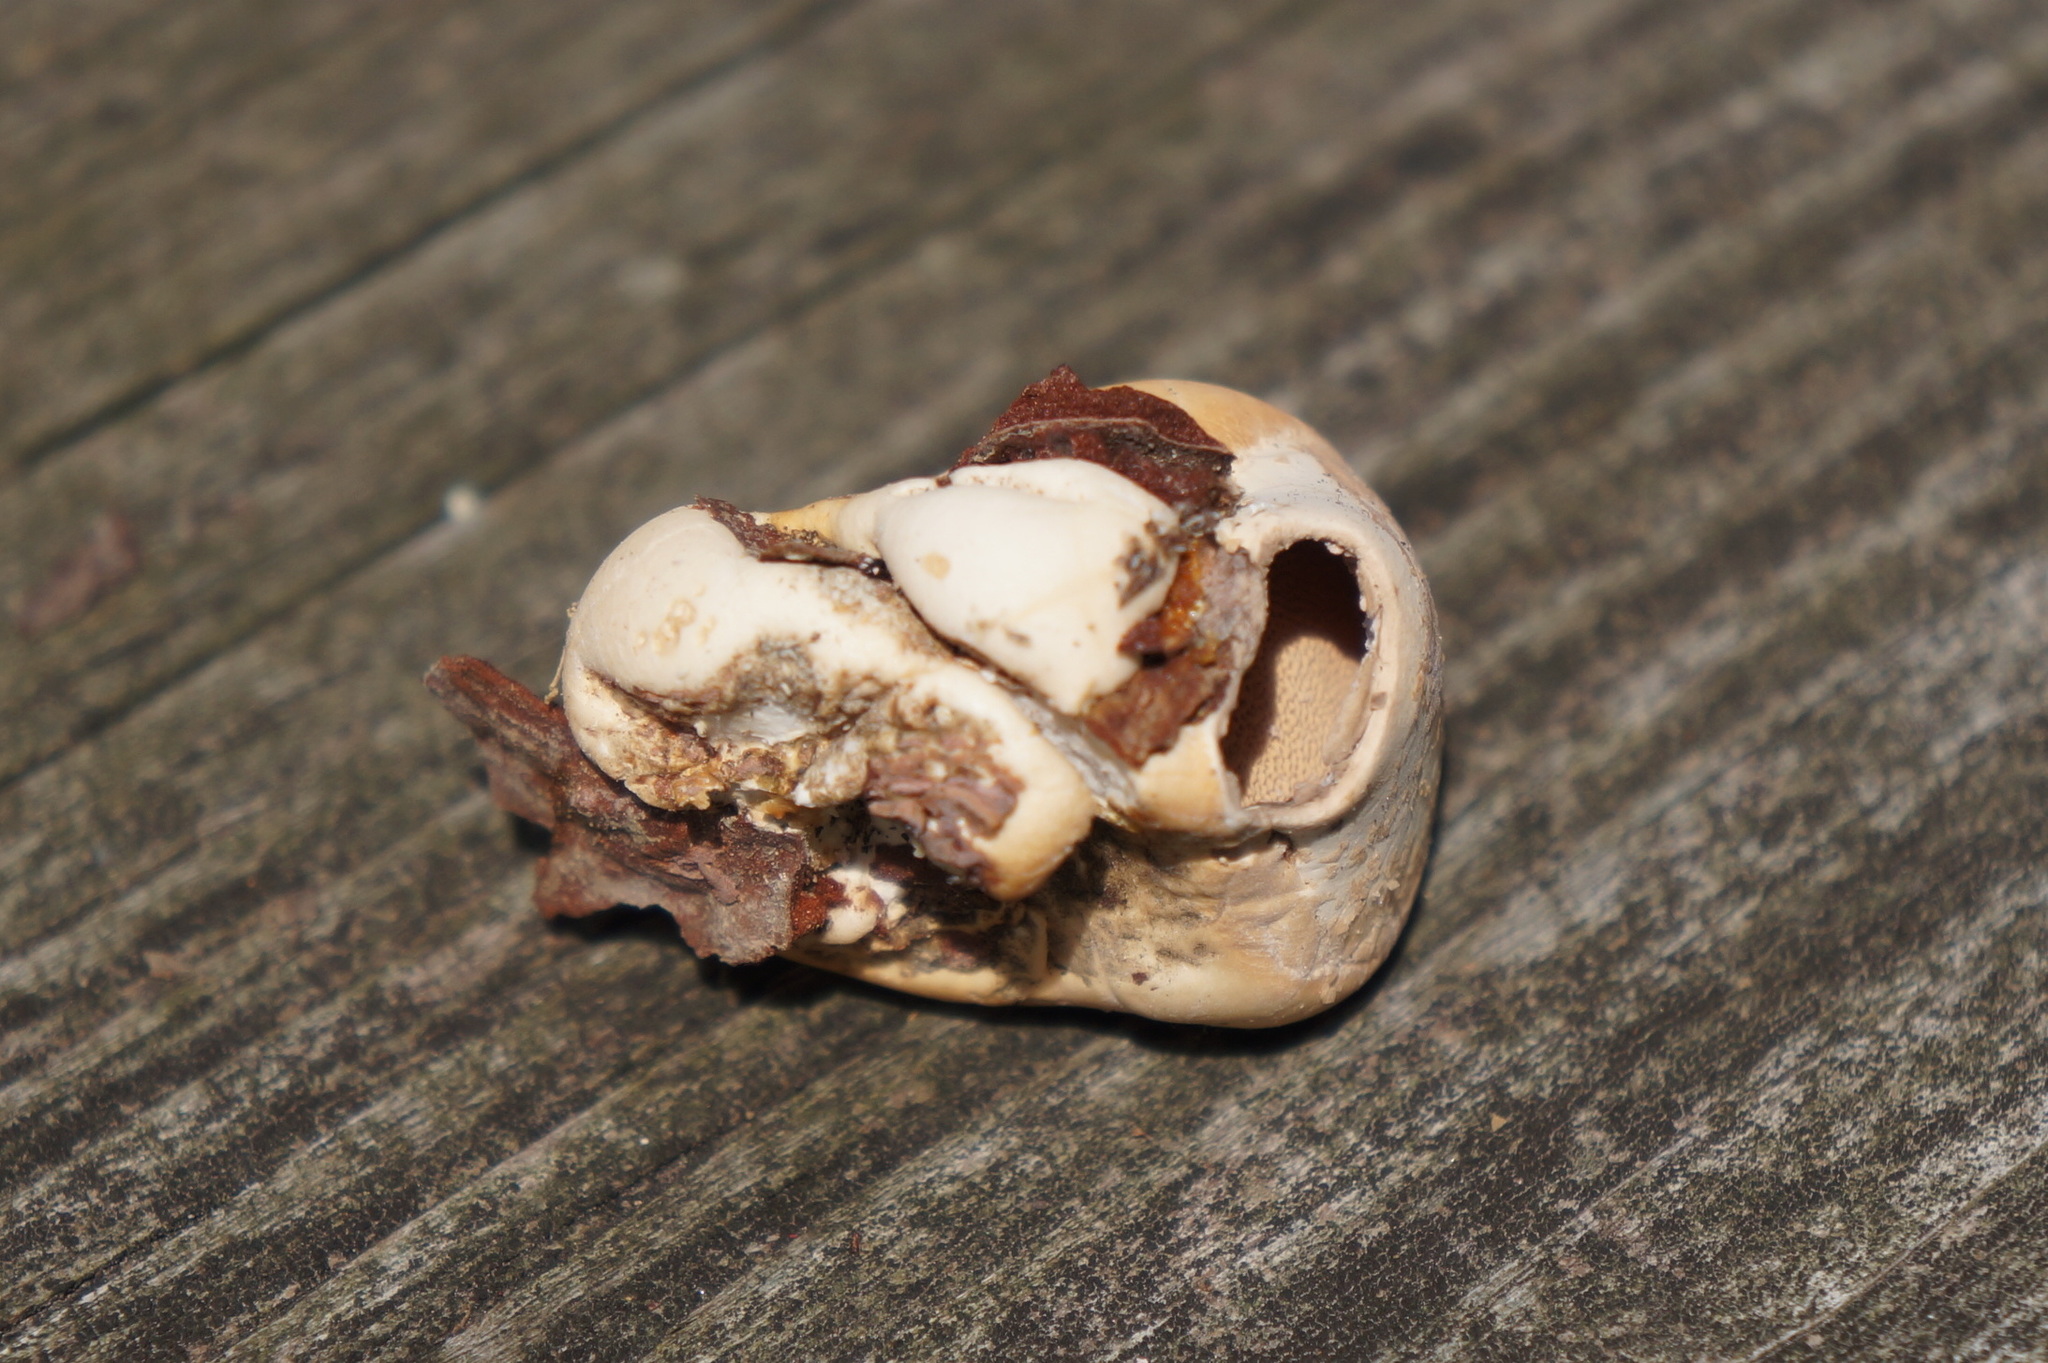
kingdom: Fungi
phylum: Basidiomycota
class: Agaricomycetes
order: Polyporales
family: Polyporaceae
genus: Cryptoporus
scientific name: Cryptoporus volvatus
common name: Veiled polypore
